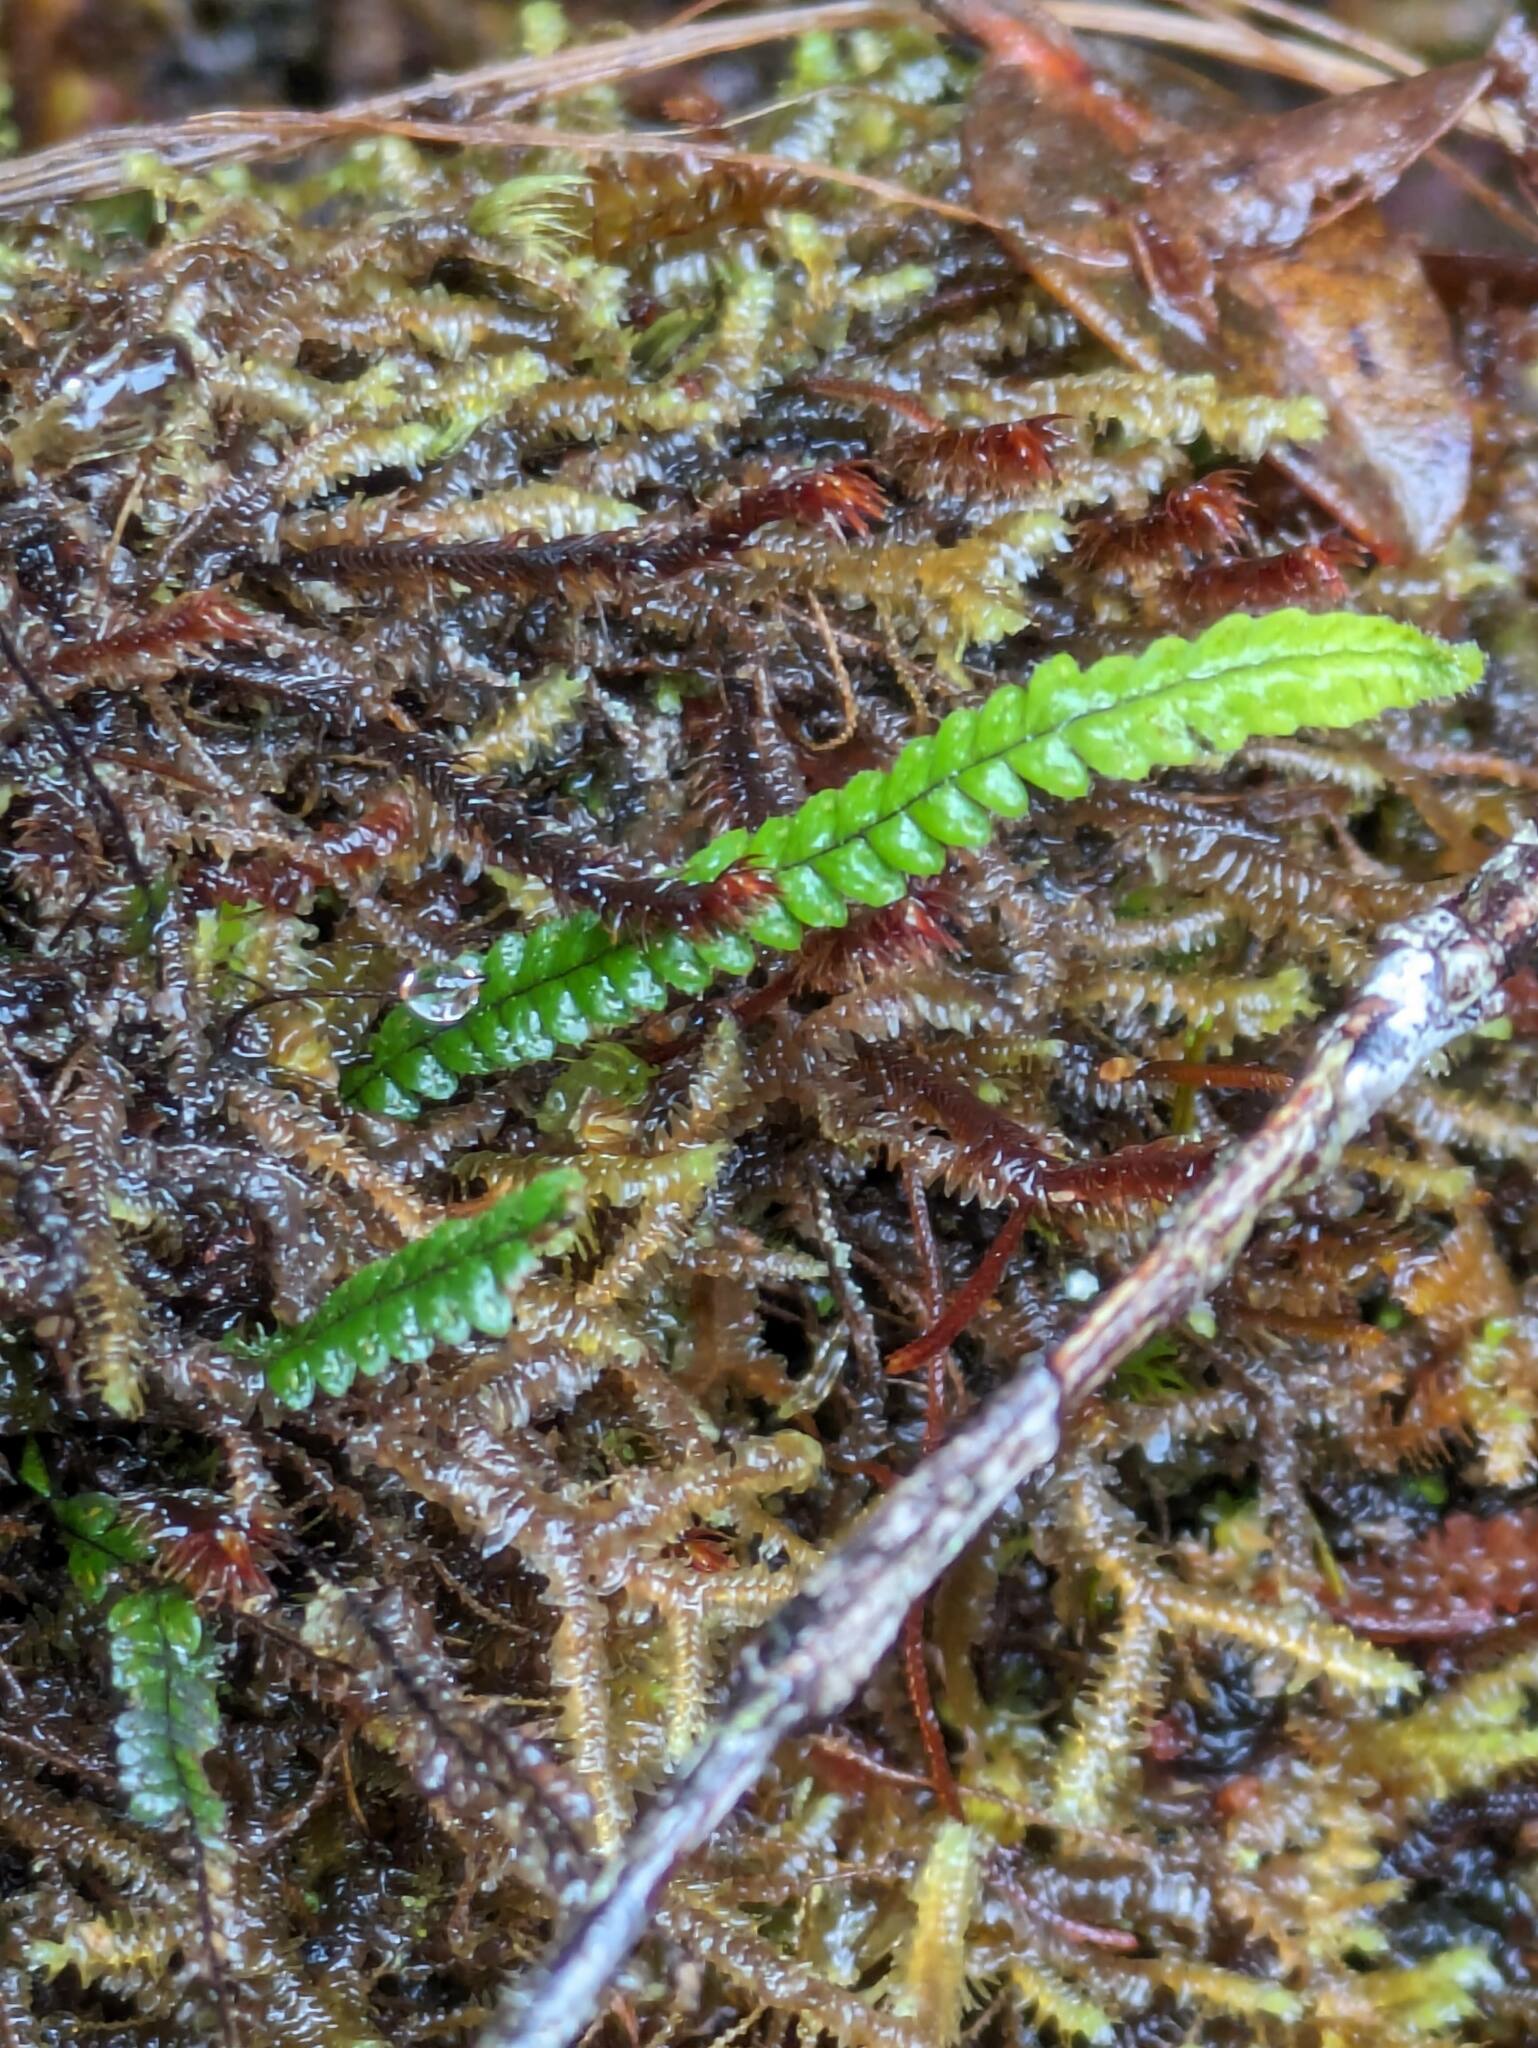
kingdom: Plantae
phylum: Tracheophyta
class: Polypodiopsida
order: Polypodiales
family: Polypodiaceae
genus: Stenogrammitis
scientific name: Stenogrammitis saffordii
